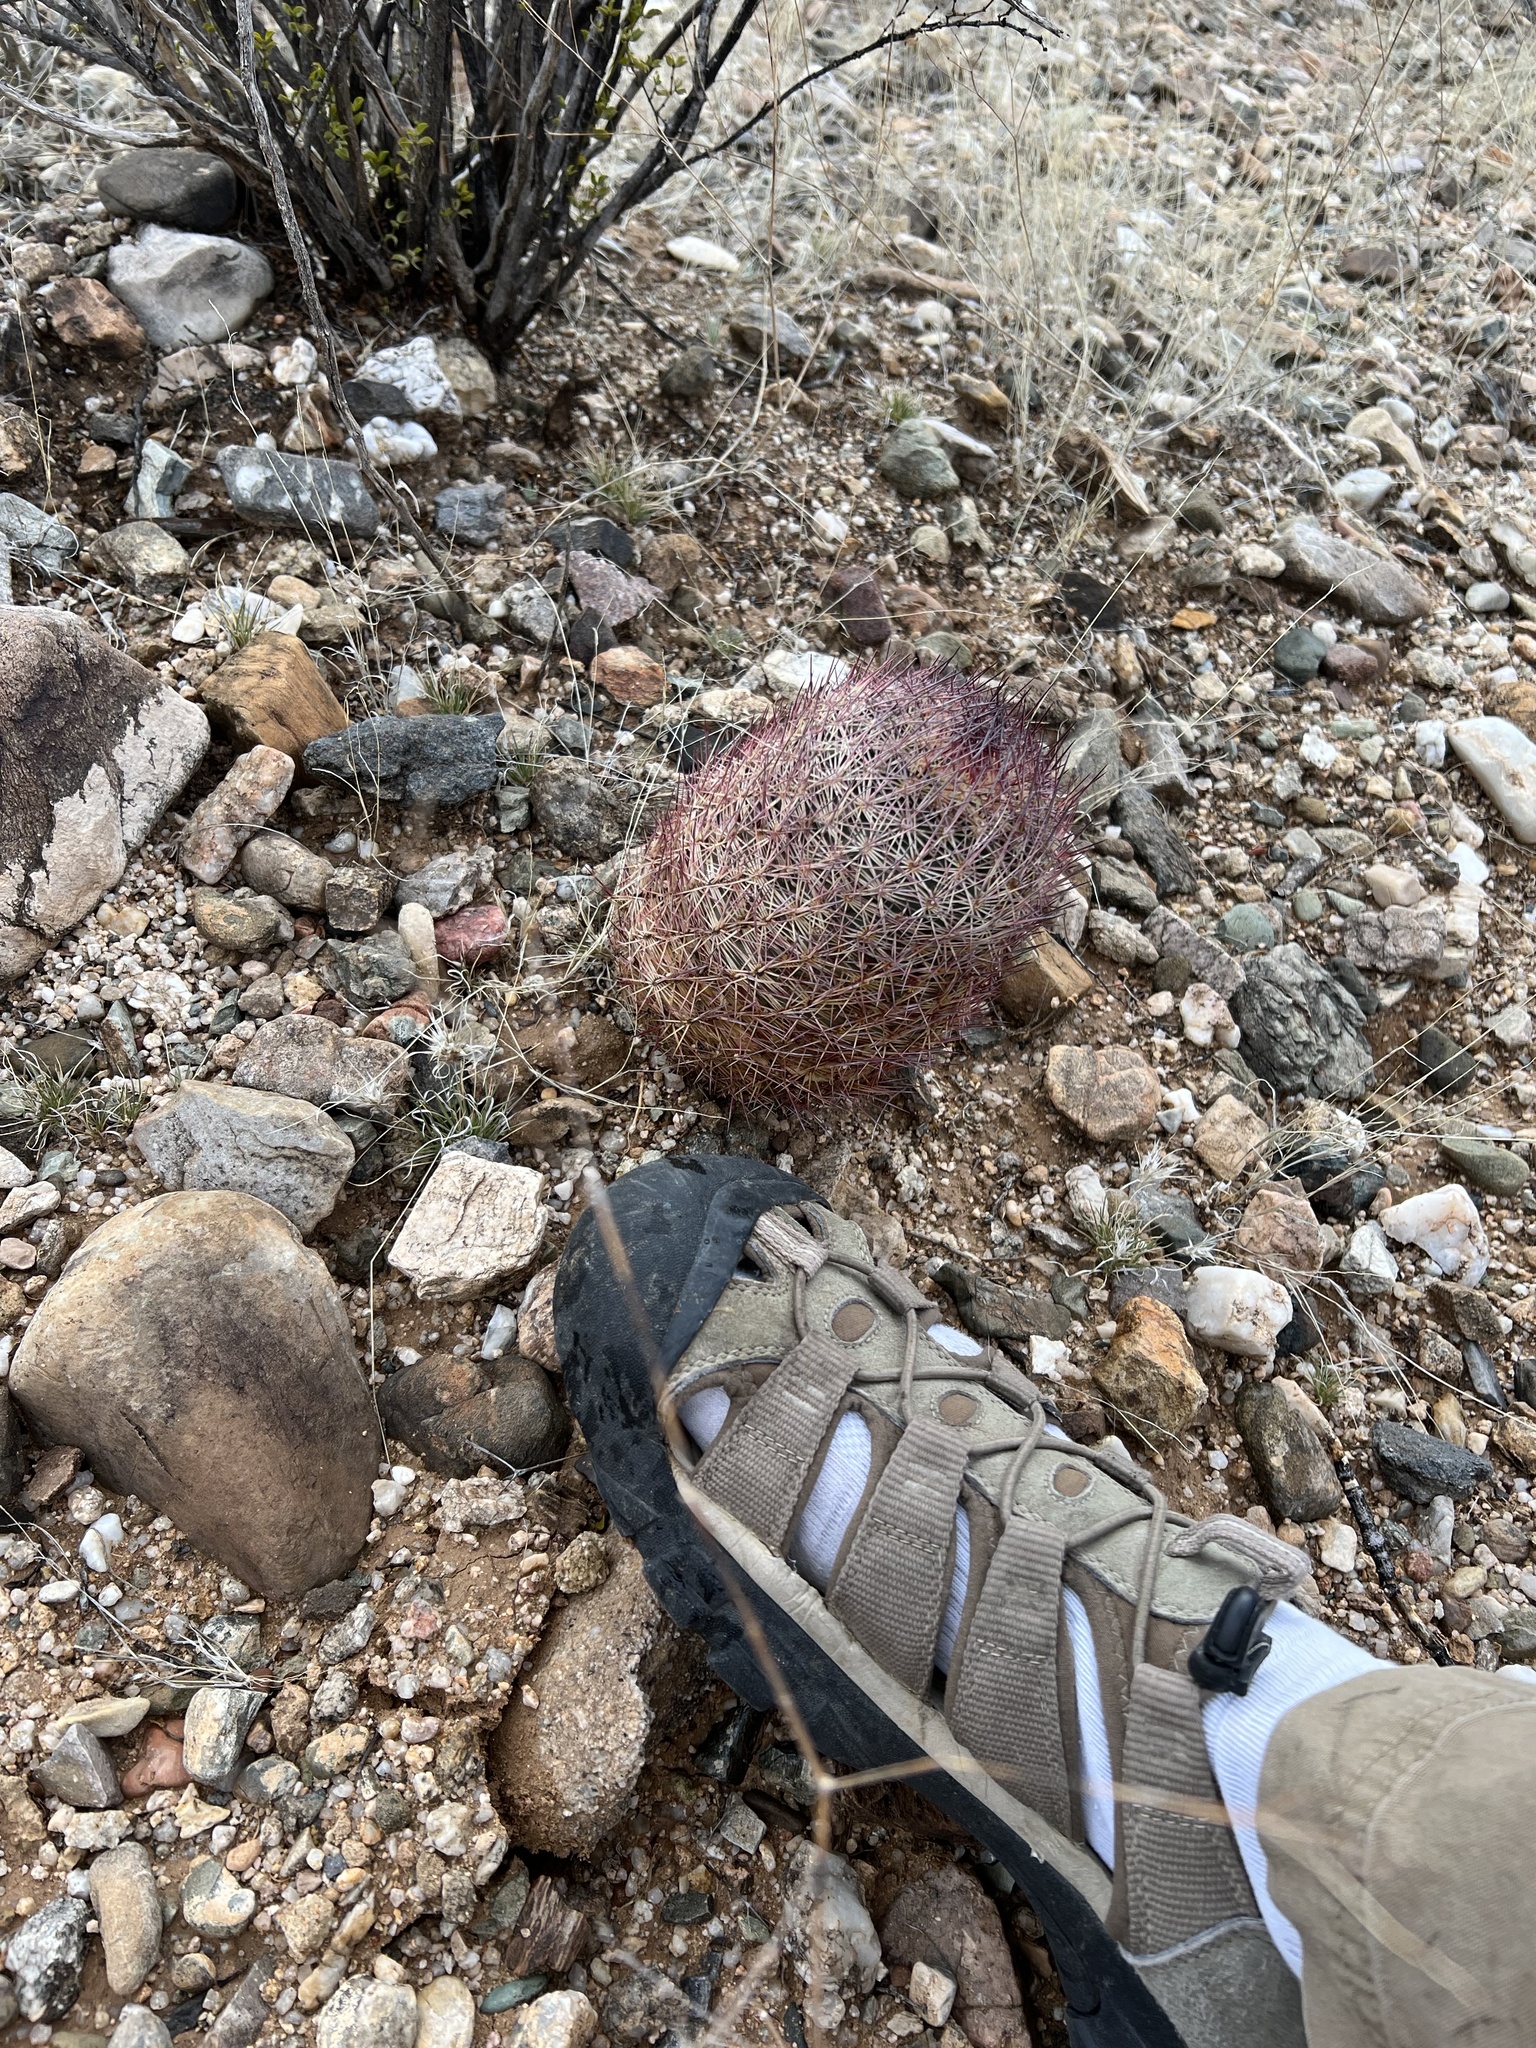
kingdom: Plantae
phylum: Tracheophyta
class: Magnoliopsida
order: Caryophyllales
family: Cactaceae
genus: Sclerocactus
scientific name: Sclerocactus johnsonii
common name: Eight-spine fishhook cactus
